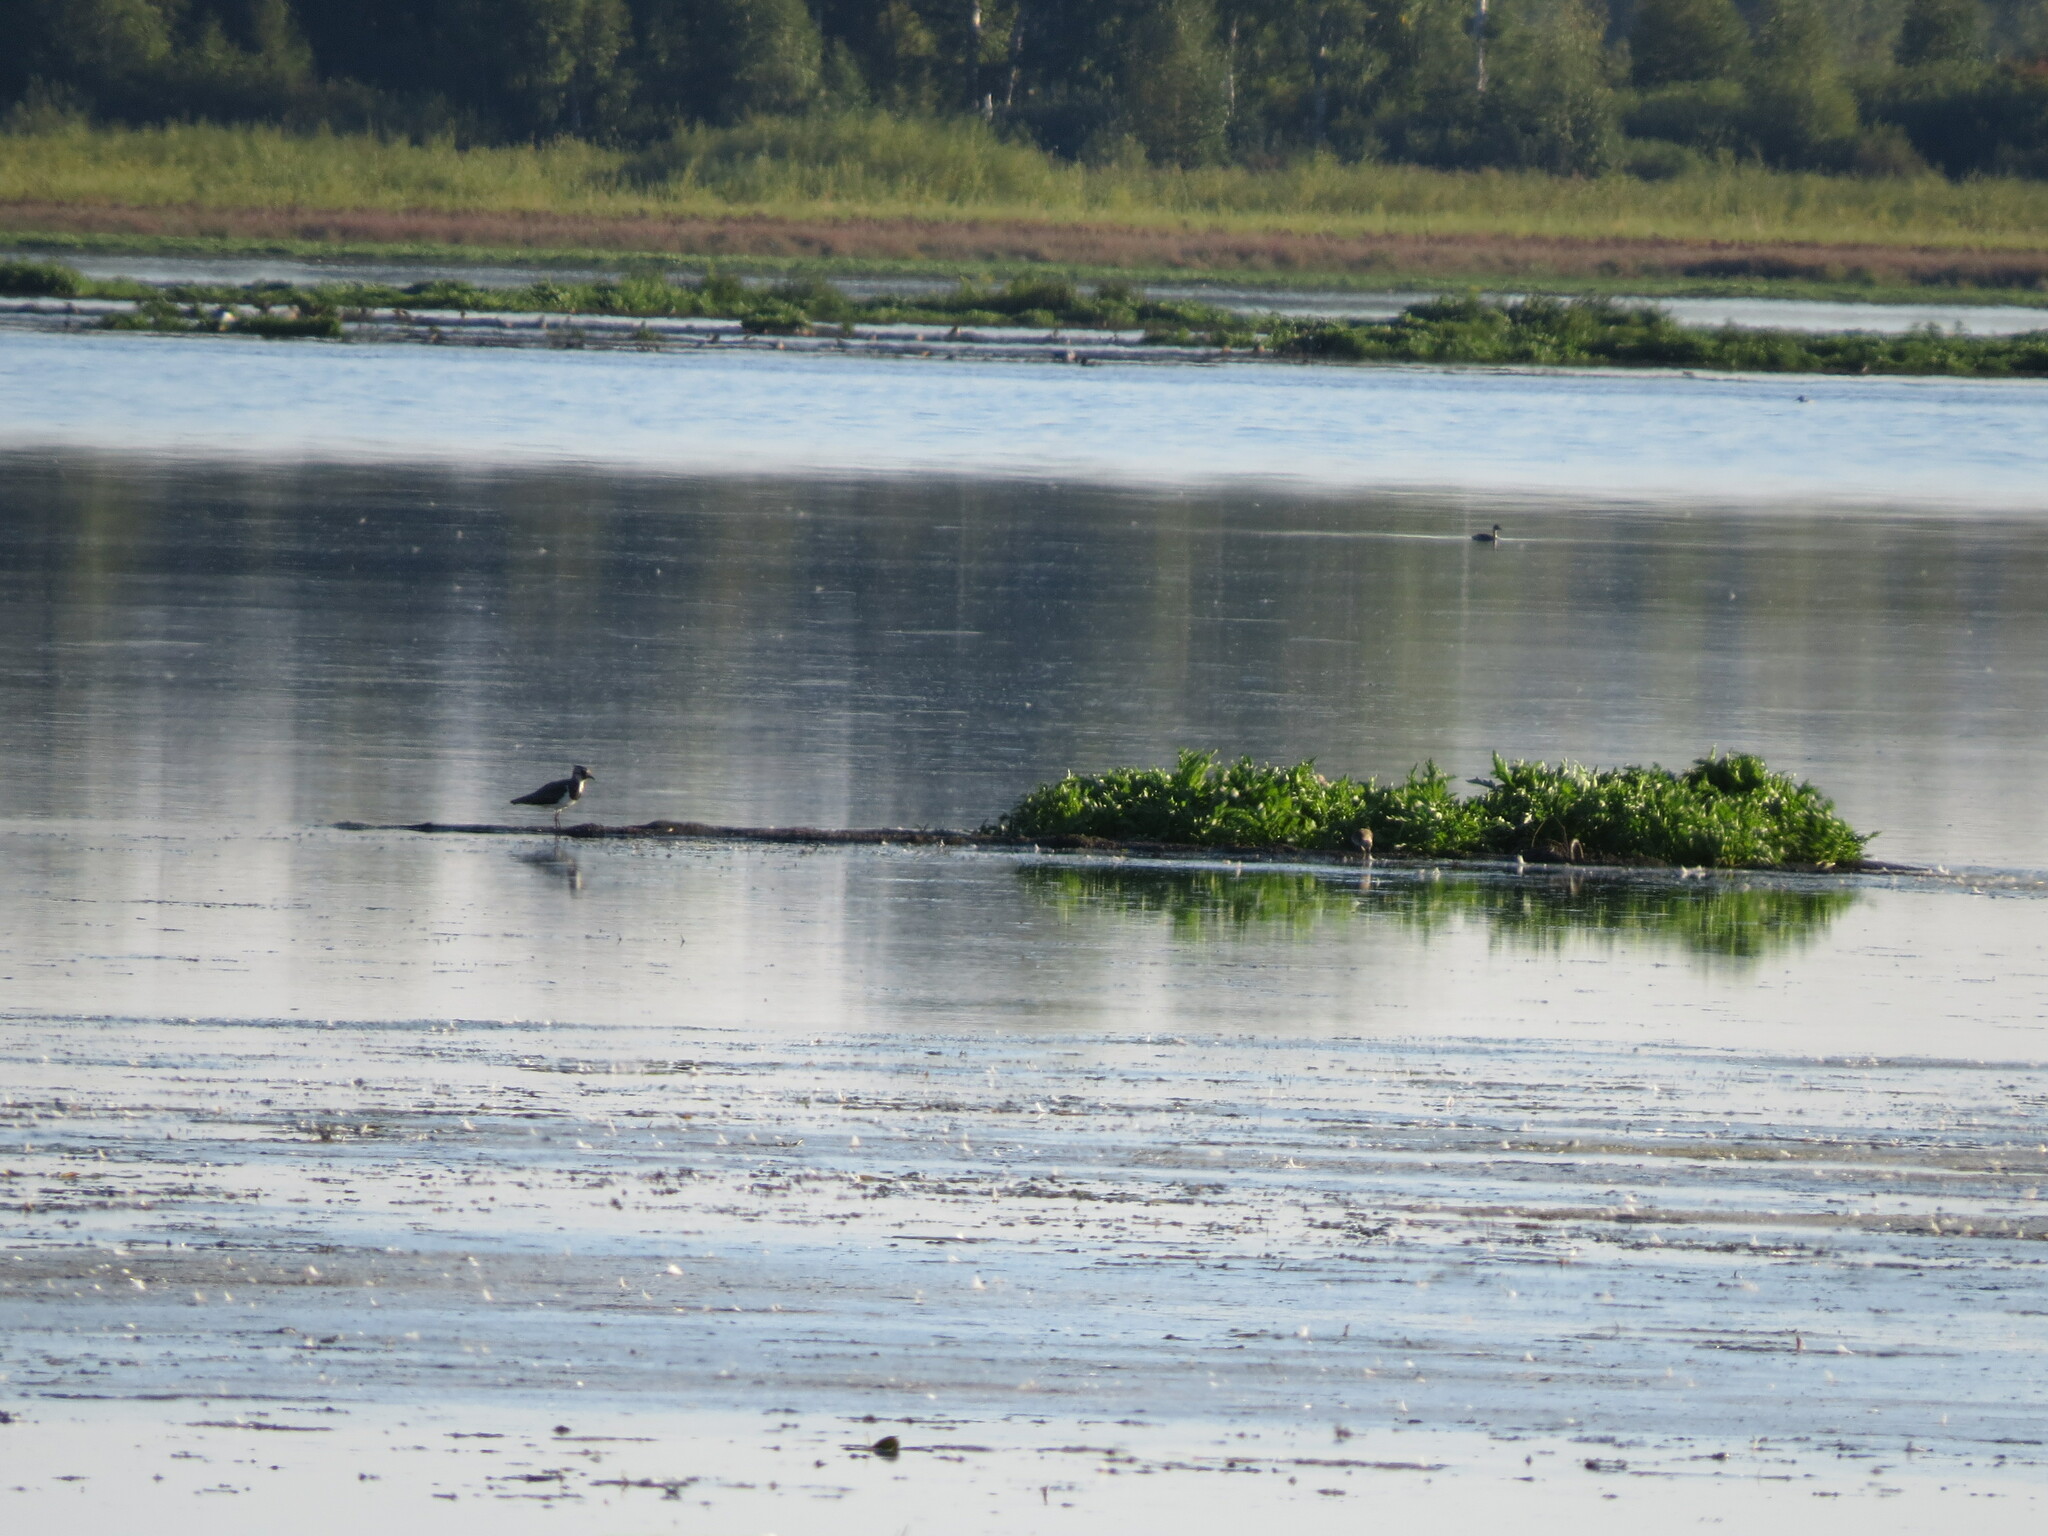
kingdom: Animalia
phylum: Chordata
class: Aves
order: Charadriiformes
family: Charadriidae
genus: Vanellus
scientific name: Vanellus vanellus
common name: Northern lapwing
